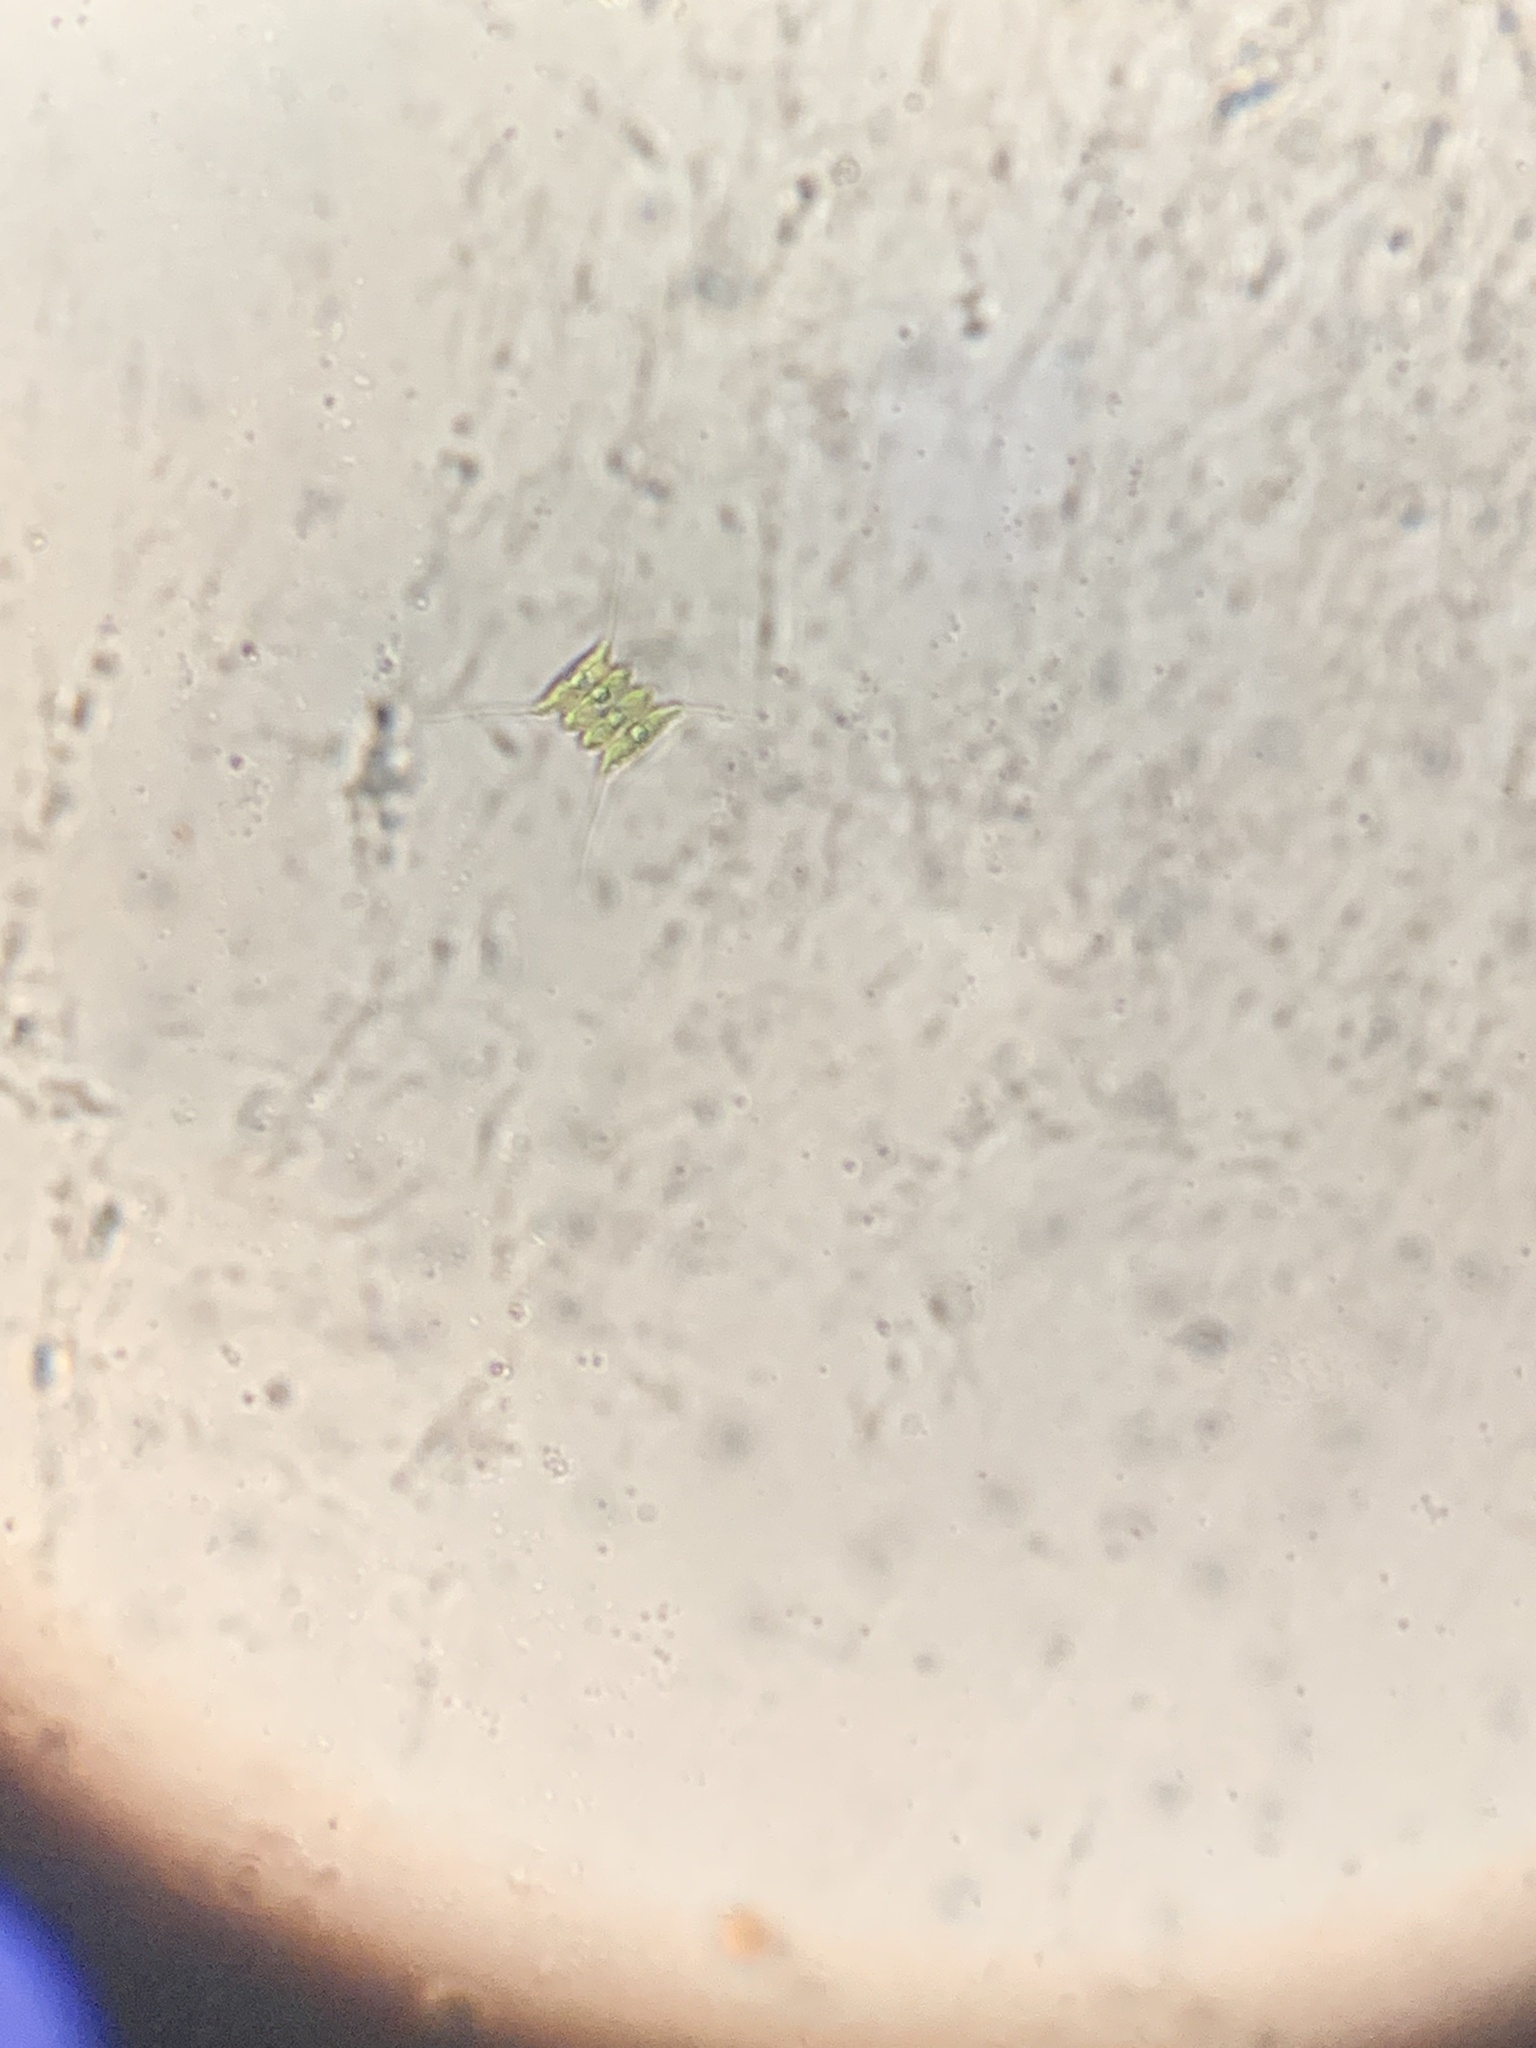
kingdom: Plantae
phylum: Chlorophyta
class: Chlorophyceae
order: Sphaeropleales
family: Scenedesmaceae
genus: Desmodesmus
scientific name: Desmodesmus protuberans
